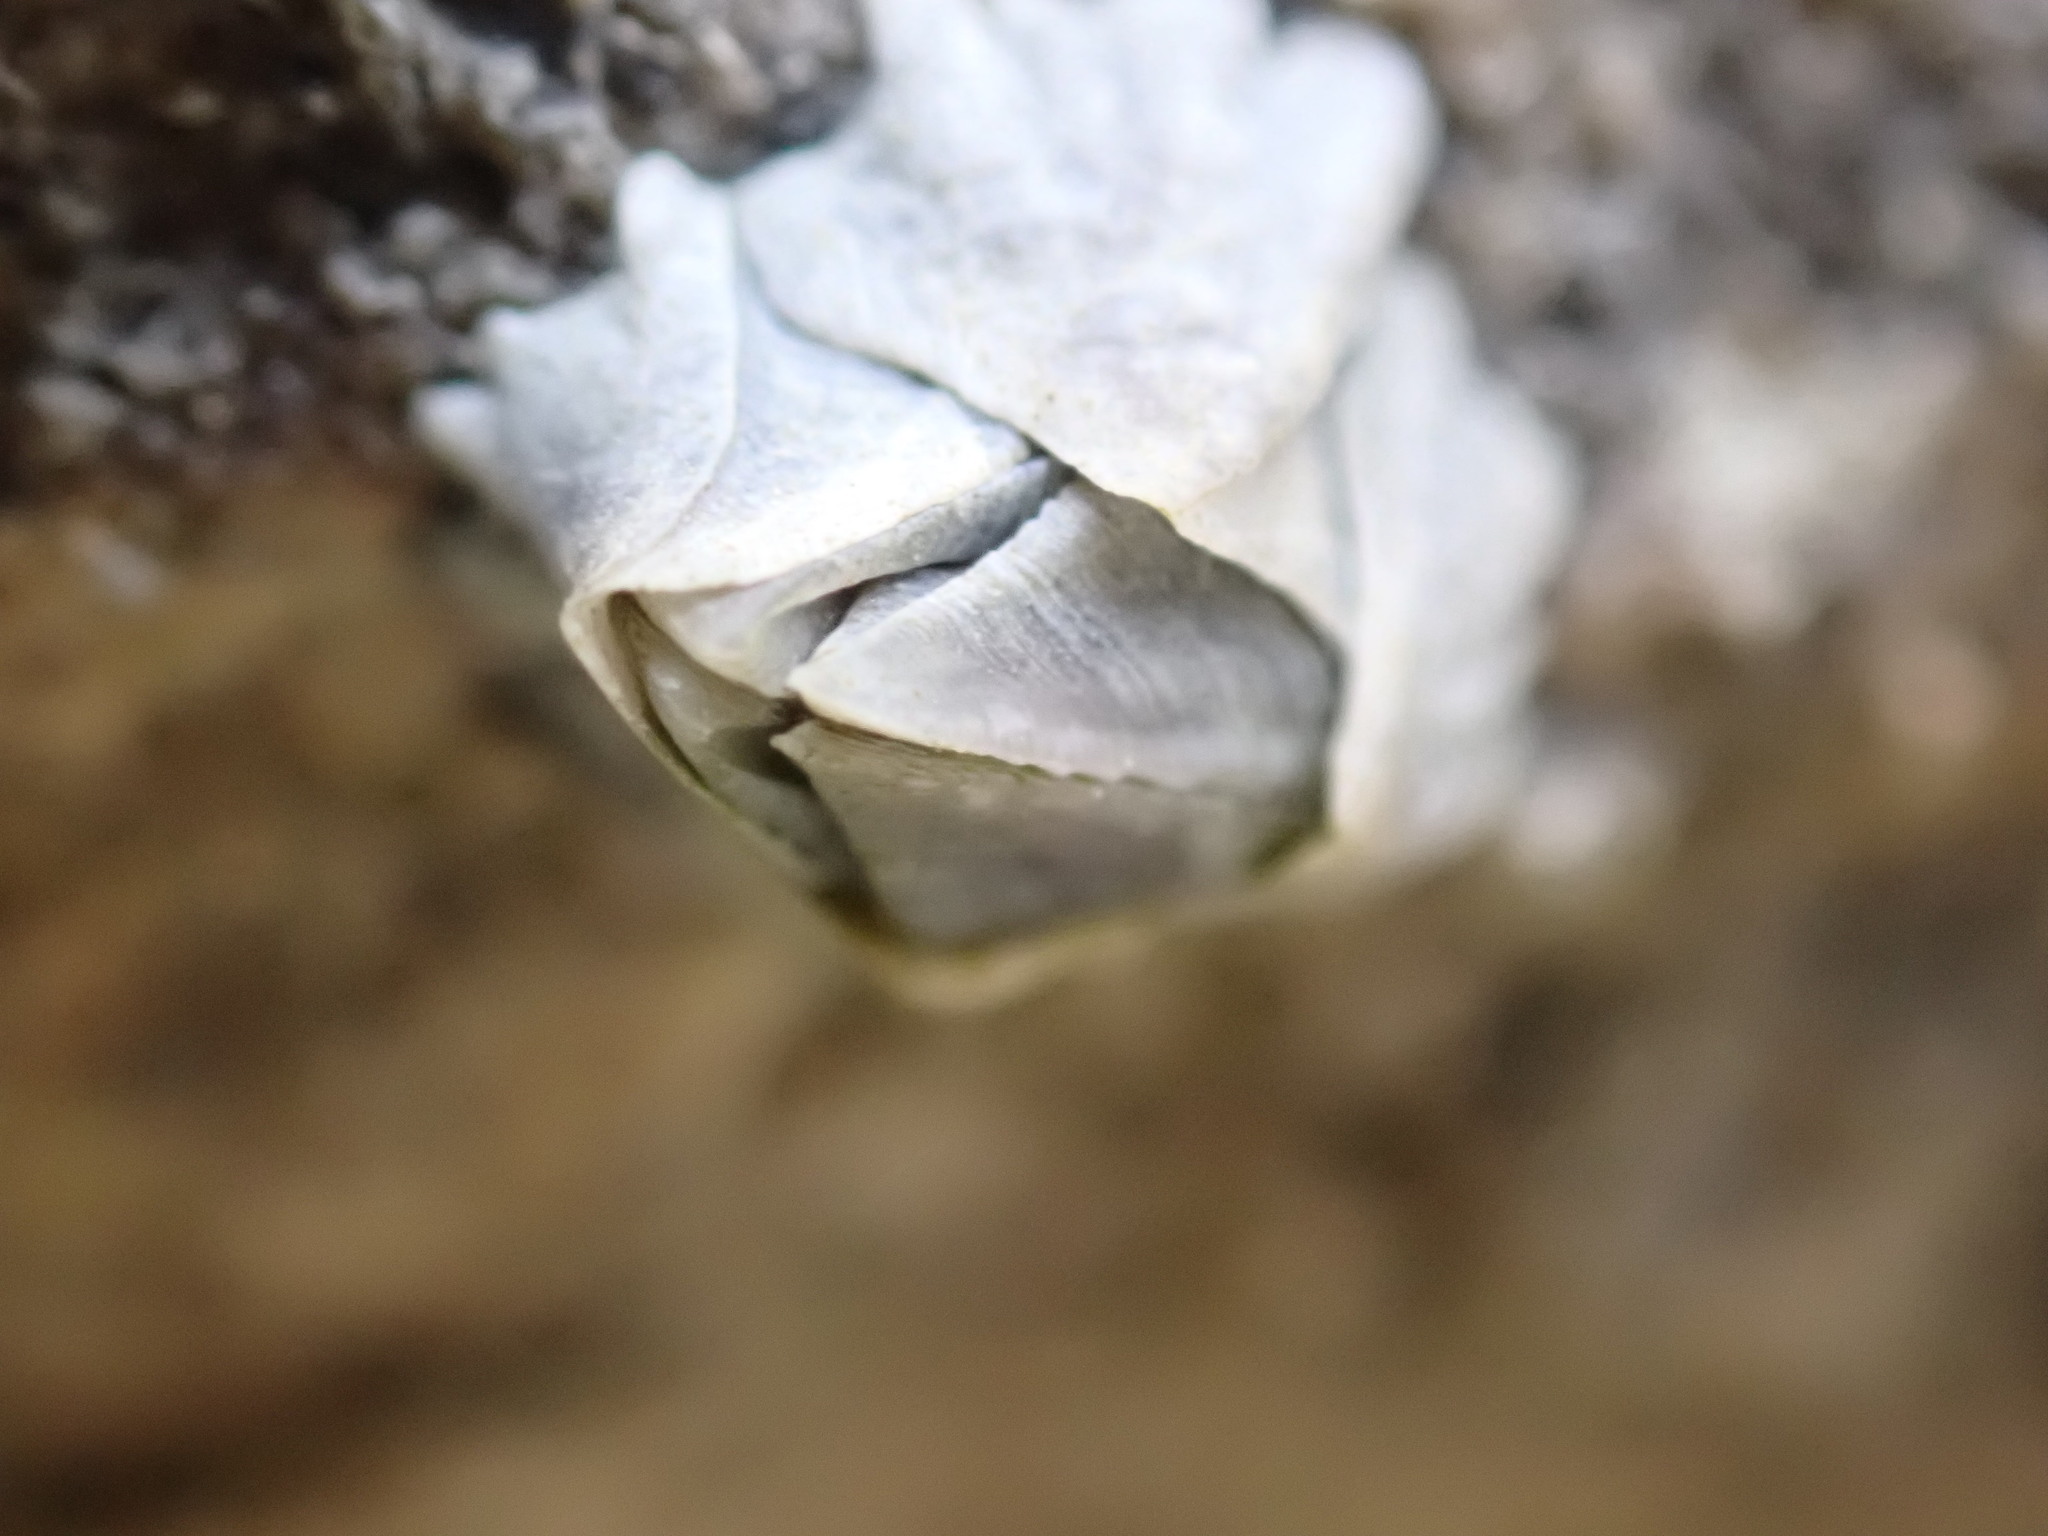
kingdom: Animalia
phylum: Arthropoda
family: Elminiidae
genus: Austrominius
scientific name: Austrominius modestus
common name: Australasian barnacle
